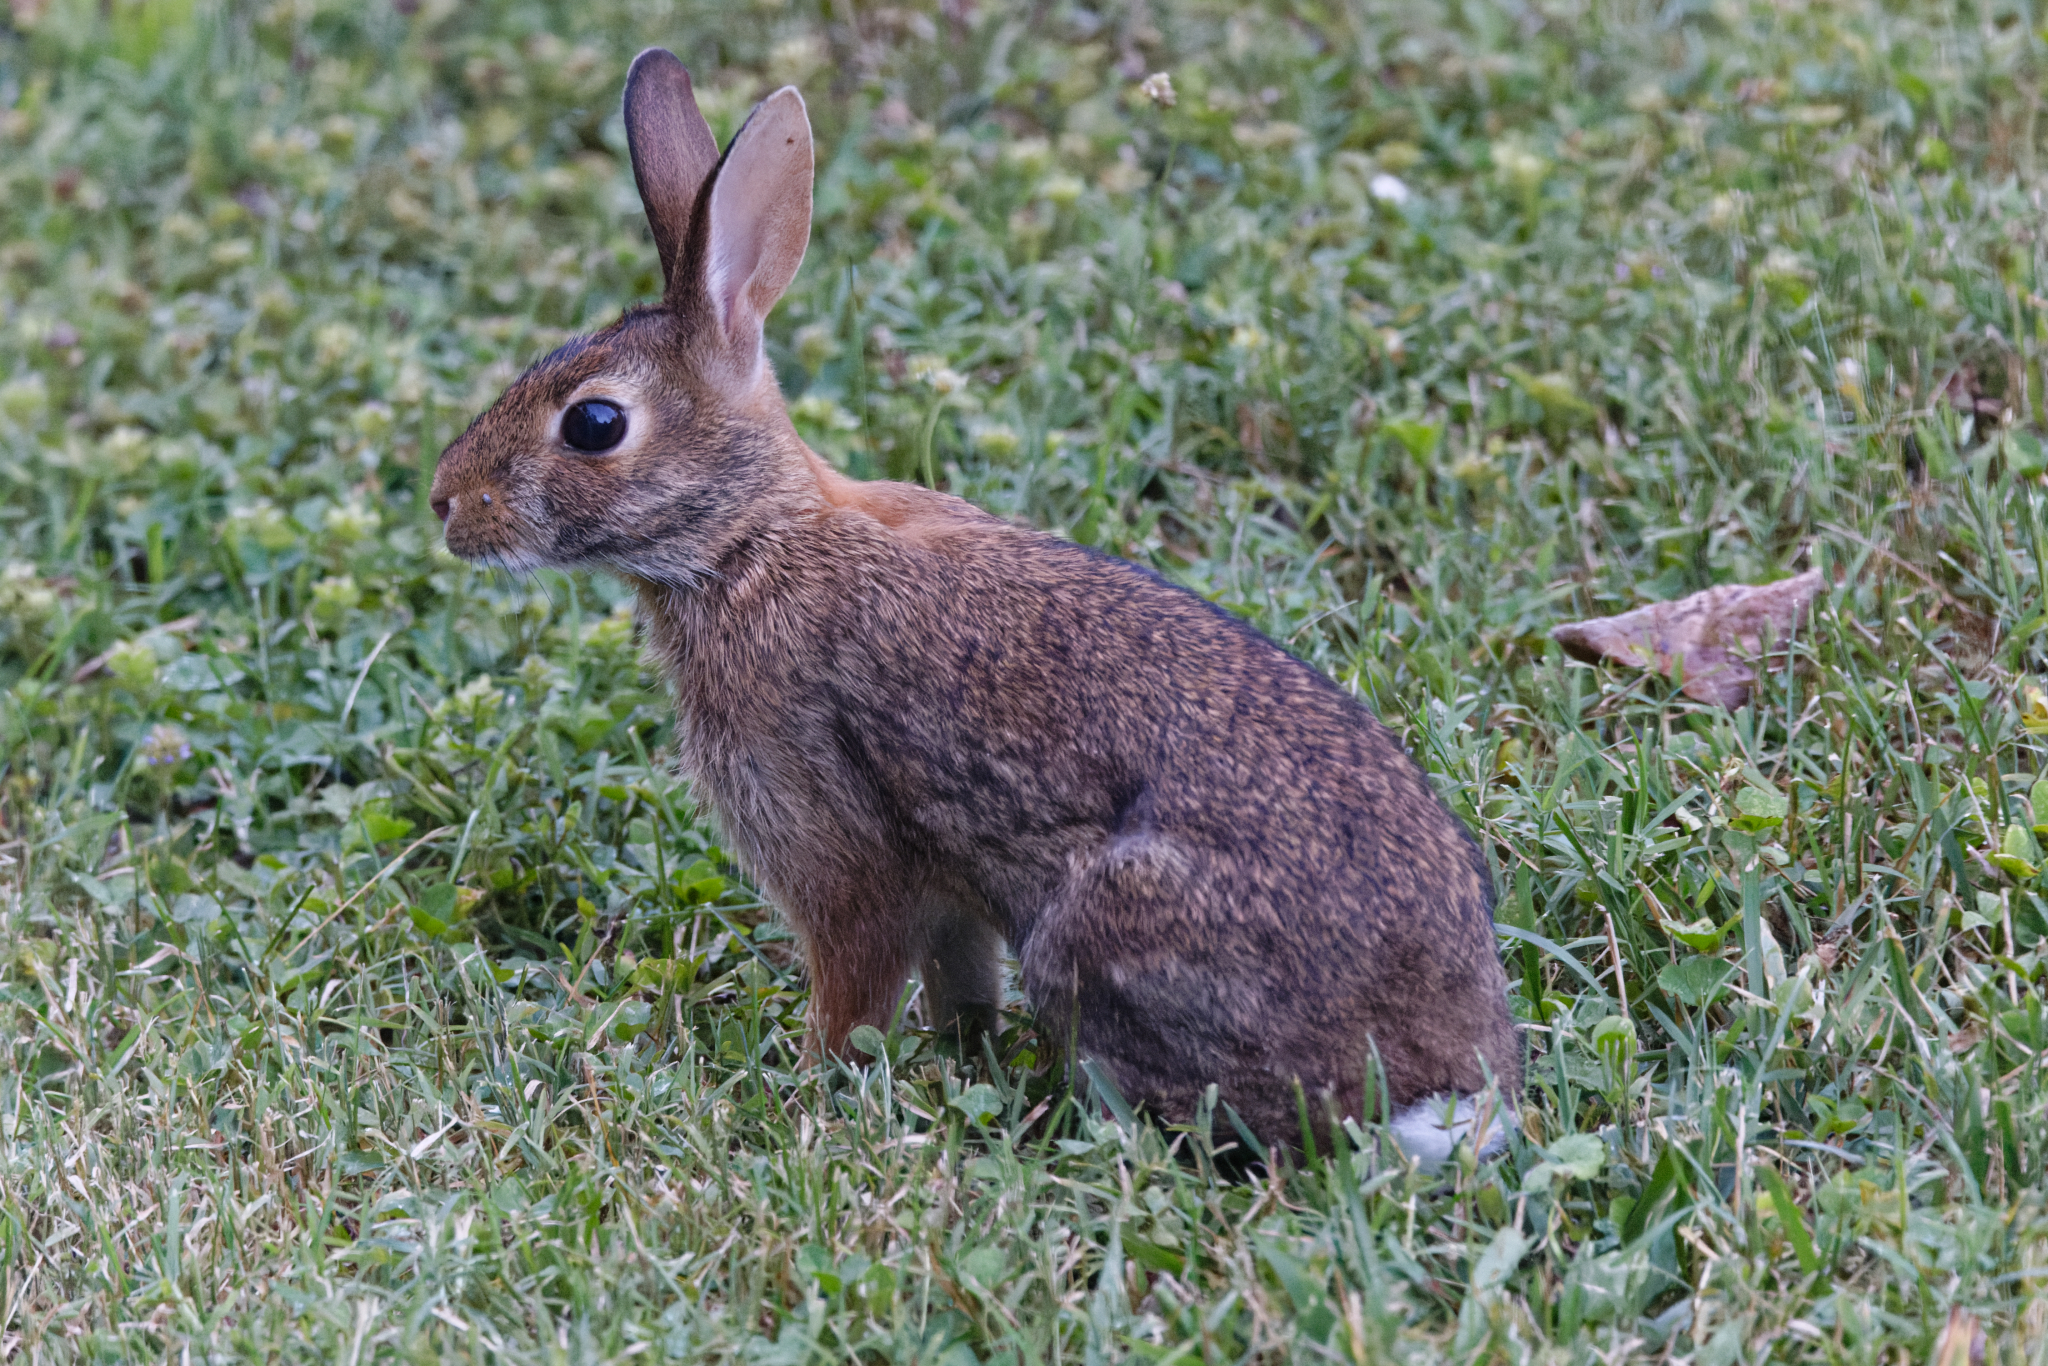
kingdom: Animalia
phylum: Chordata
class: Mammalia
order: Lagomorpha
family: Leporidae
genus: Sylvilagus
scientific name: Sylvilagus floridanus
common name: Eastern cottontail
